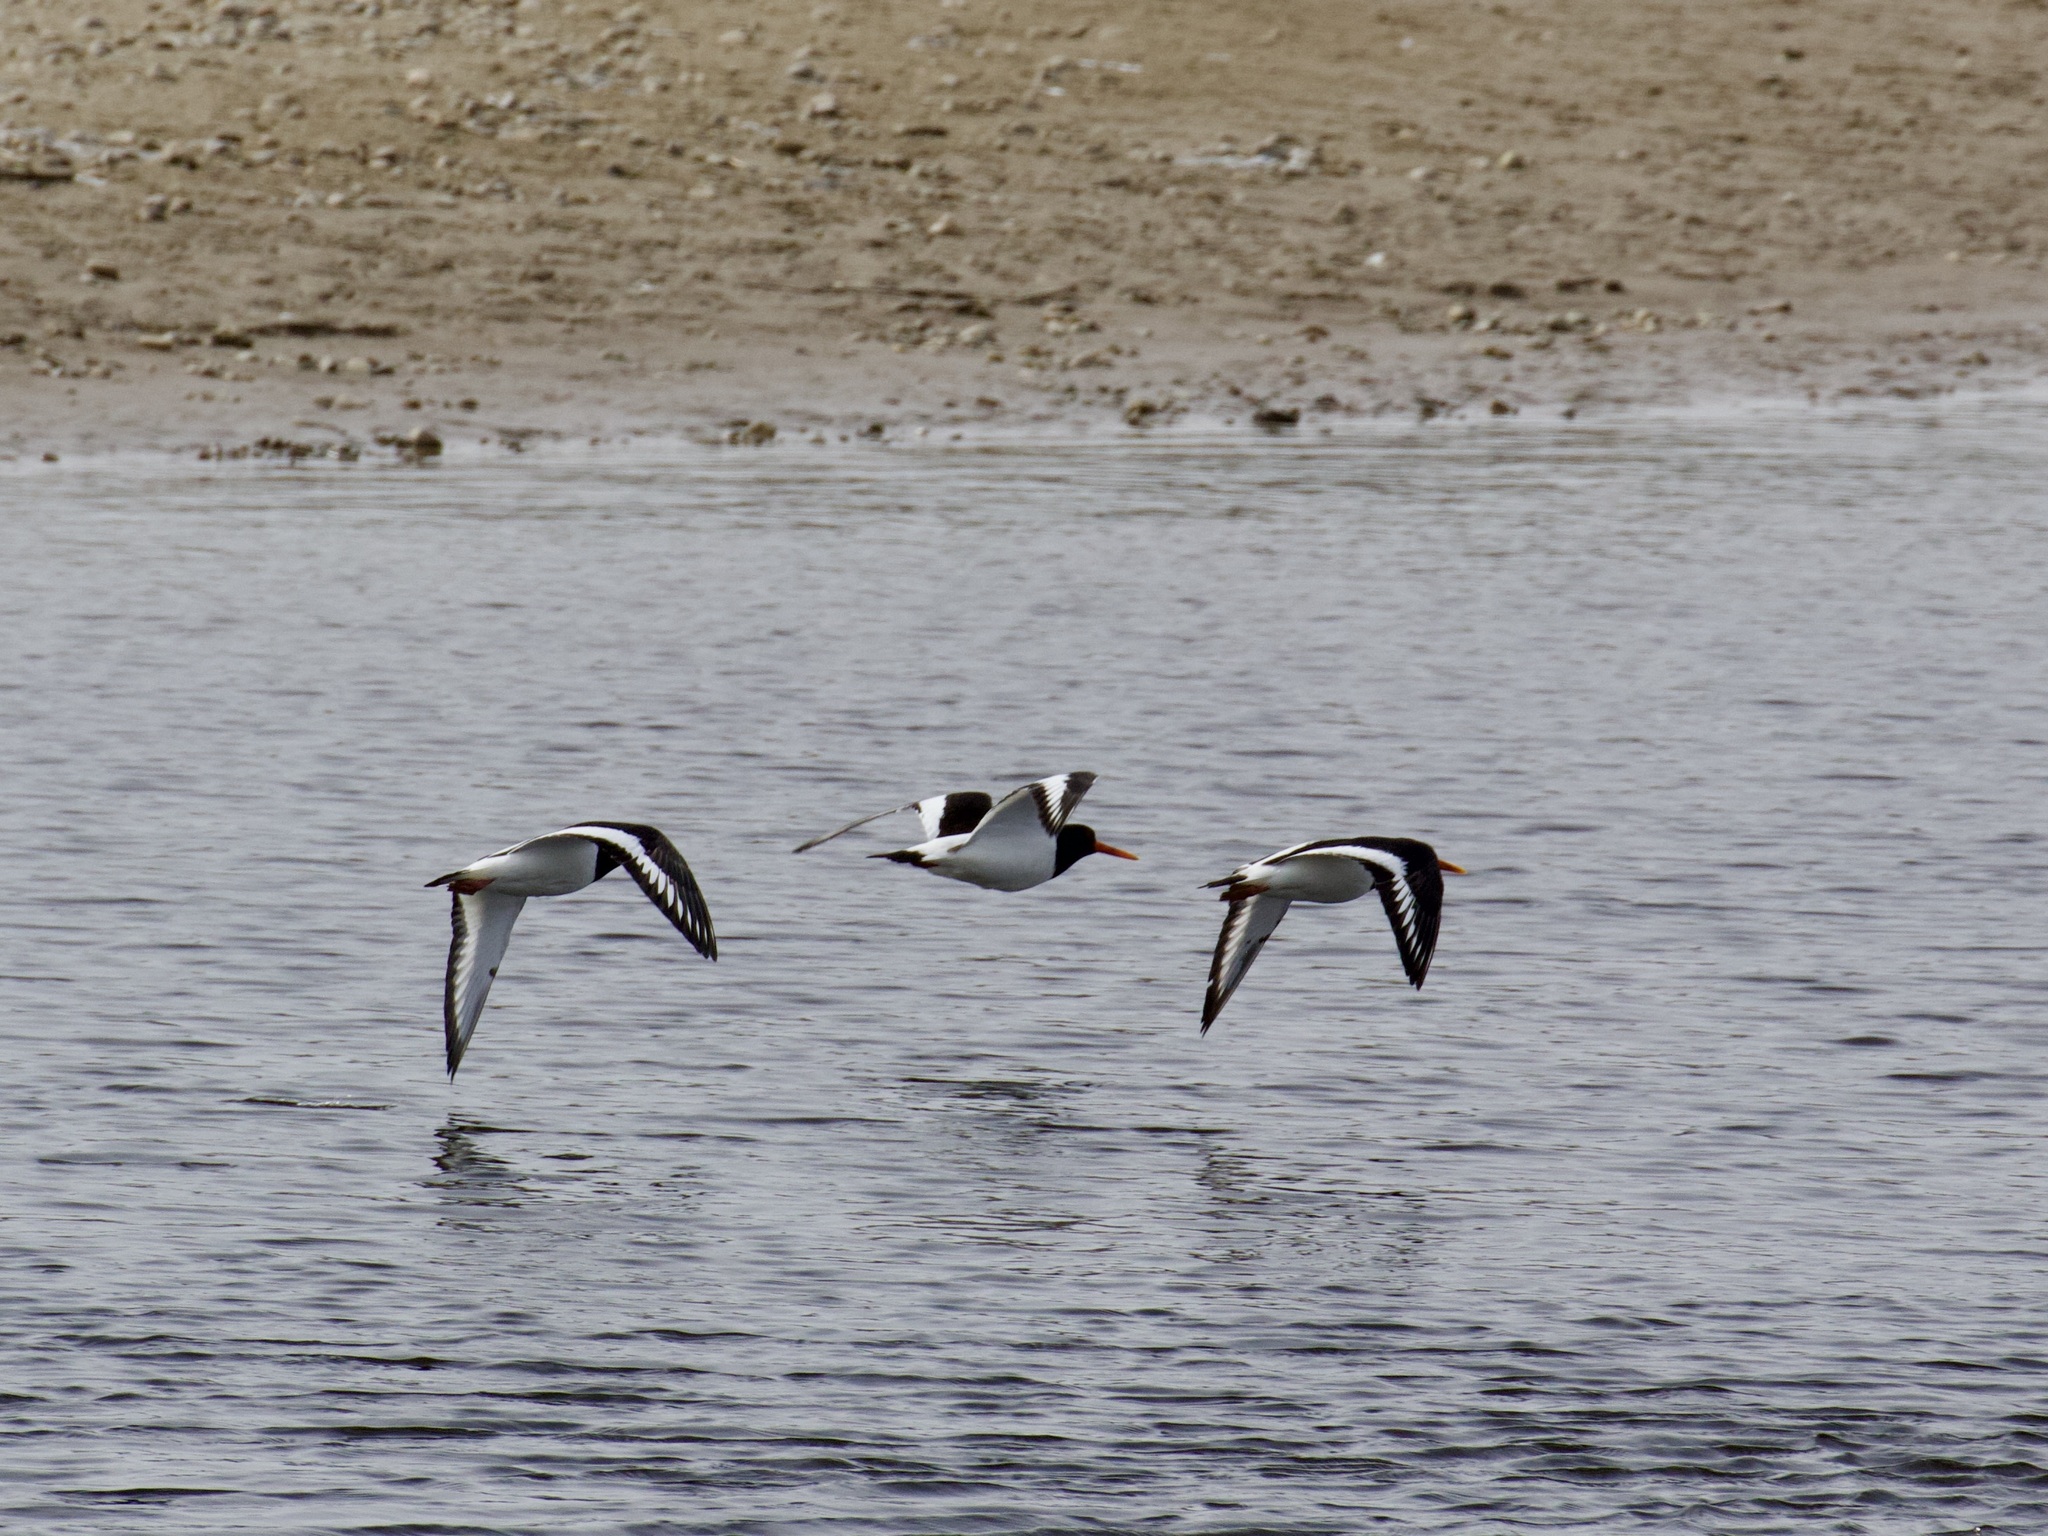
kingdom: Animalia
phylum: Chordata
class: Aves
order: Charadriiformes
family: Haematopodidae
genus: Haematopus
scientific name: Haematopus ostralegus
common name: Eurasian oystercatcher
